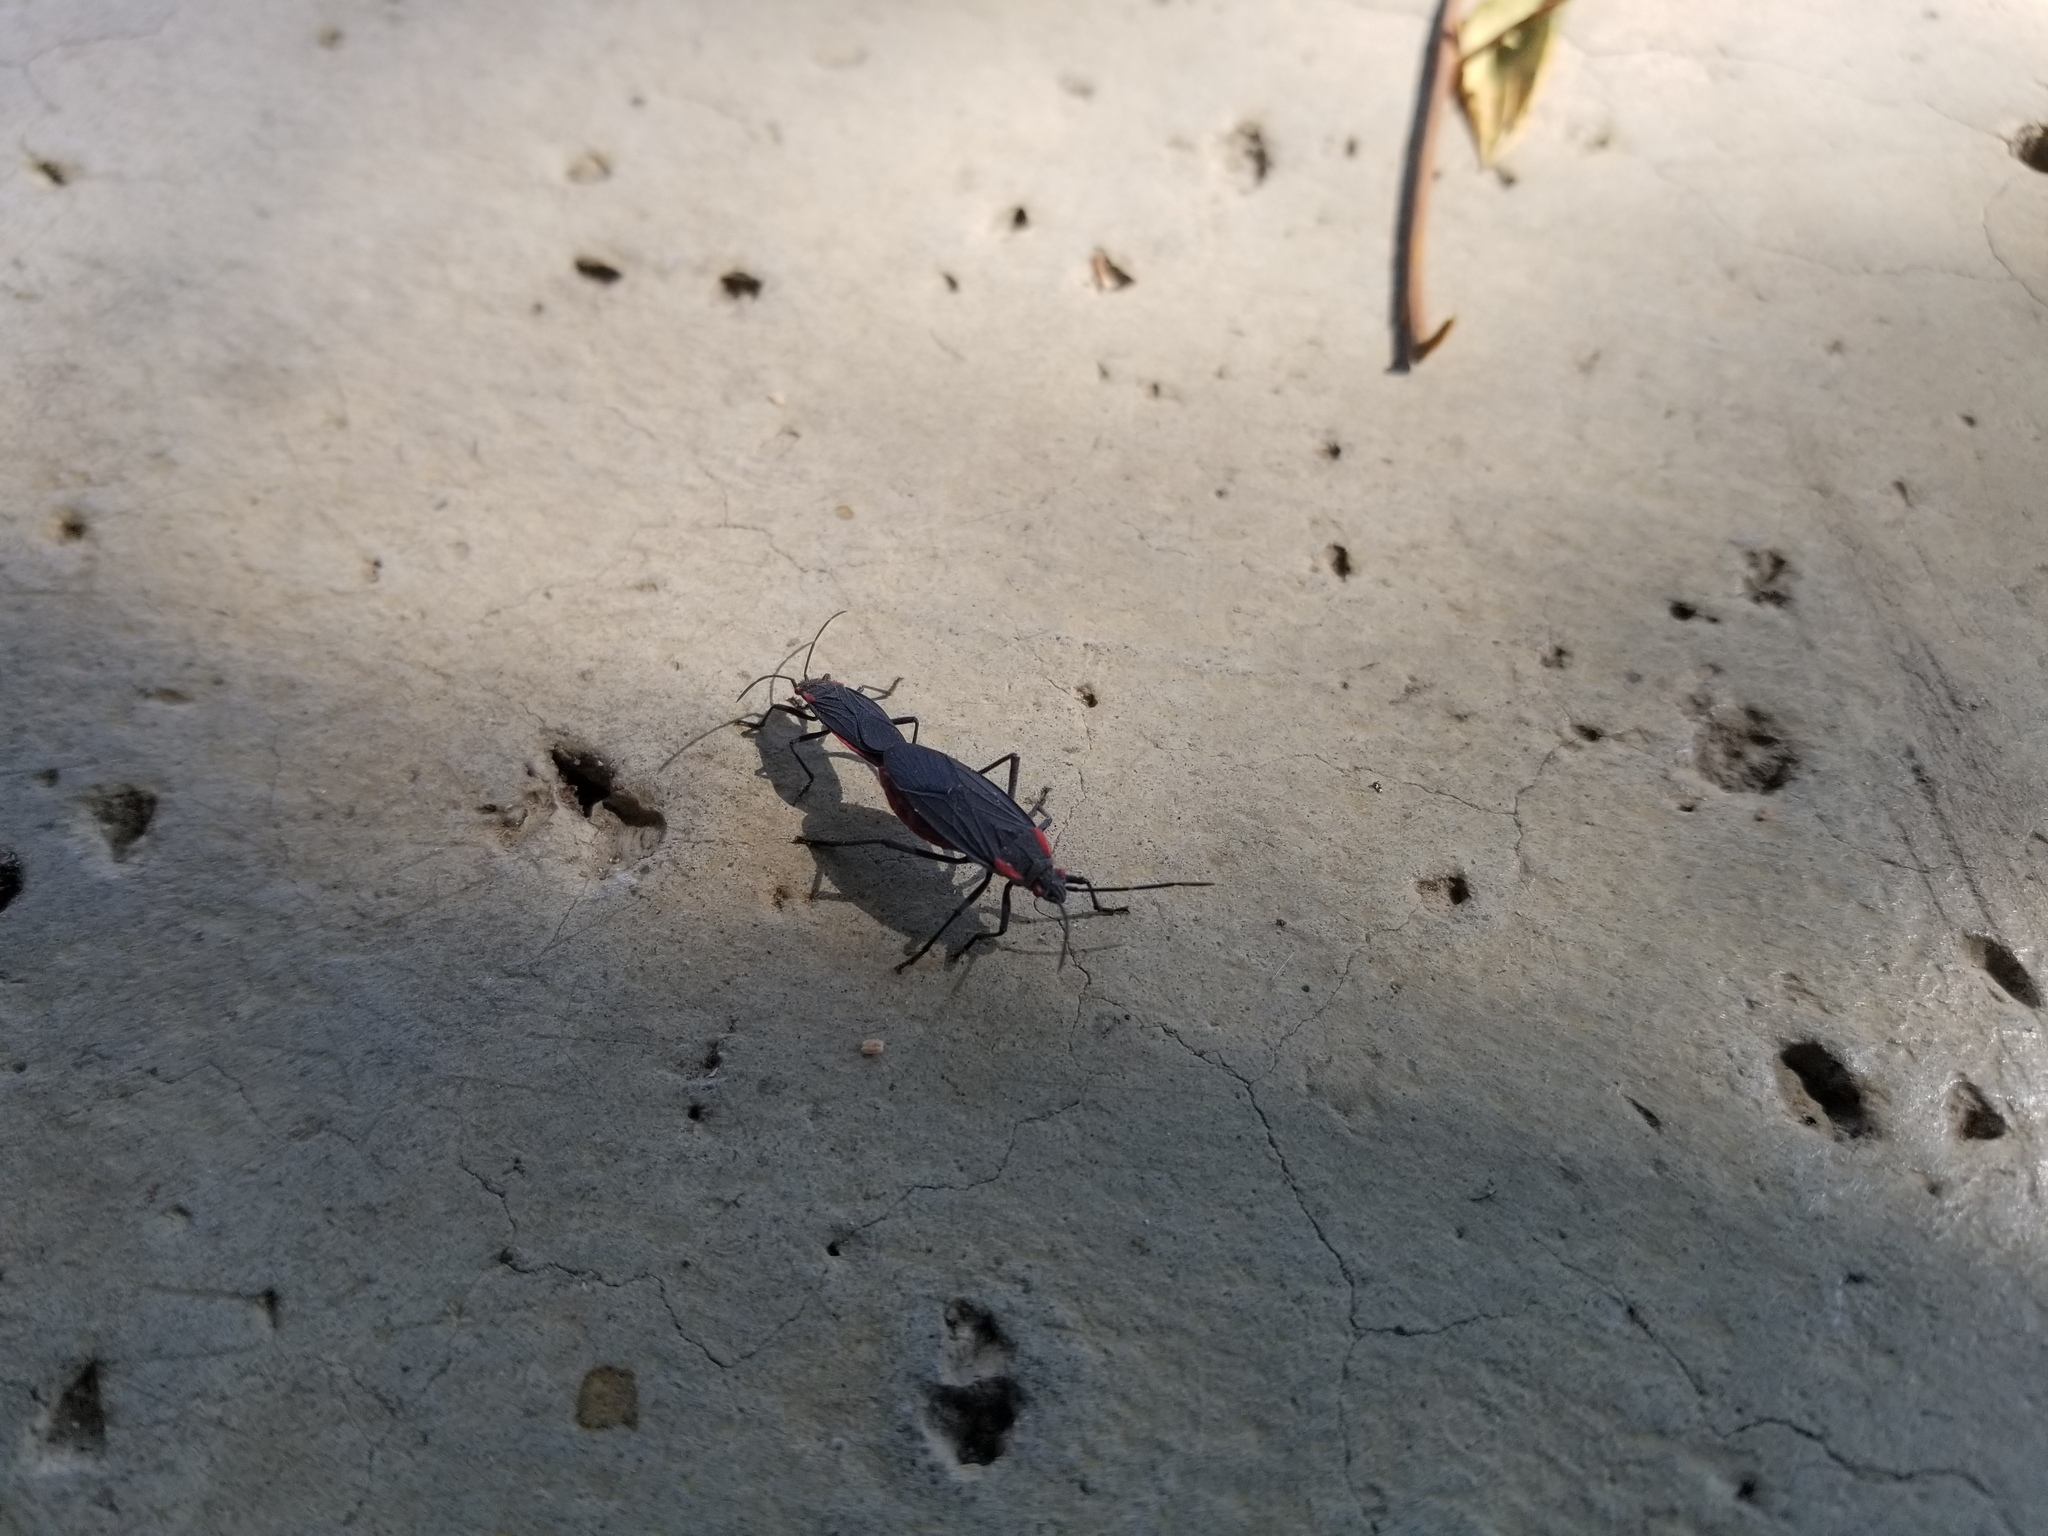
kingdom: Animalia
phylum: Arthropoda
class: Insecta
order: Hemiptera
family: Rhopalidae
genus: Jadera
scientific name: Jadera haematoloma
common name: Red-shouldered bug
